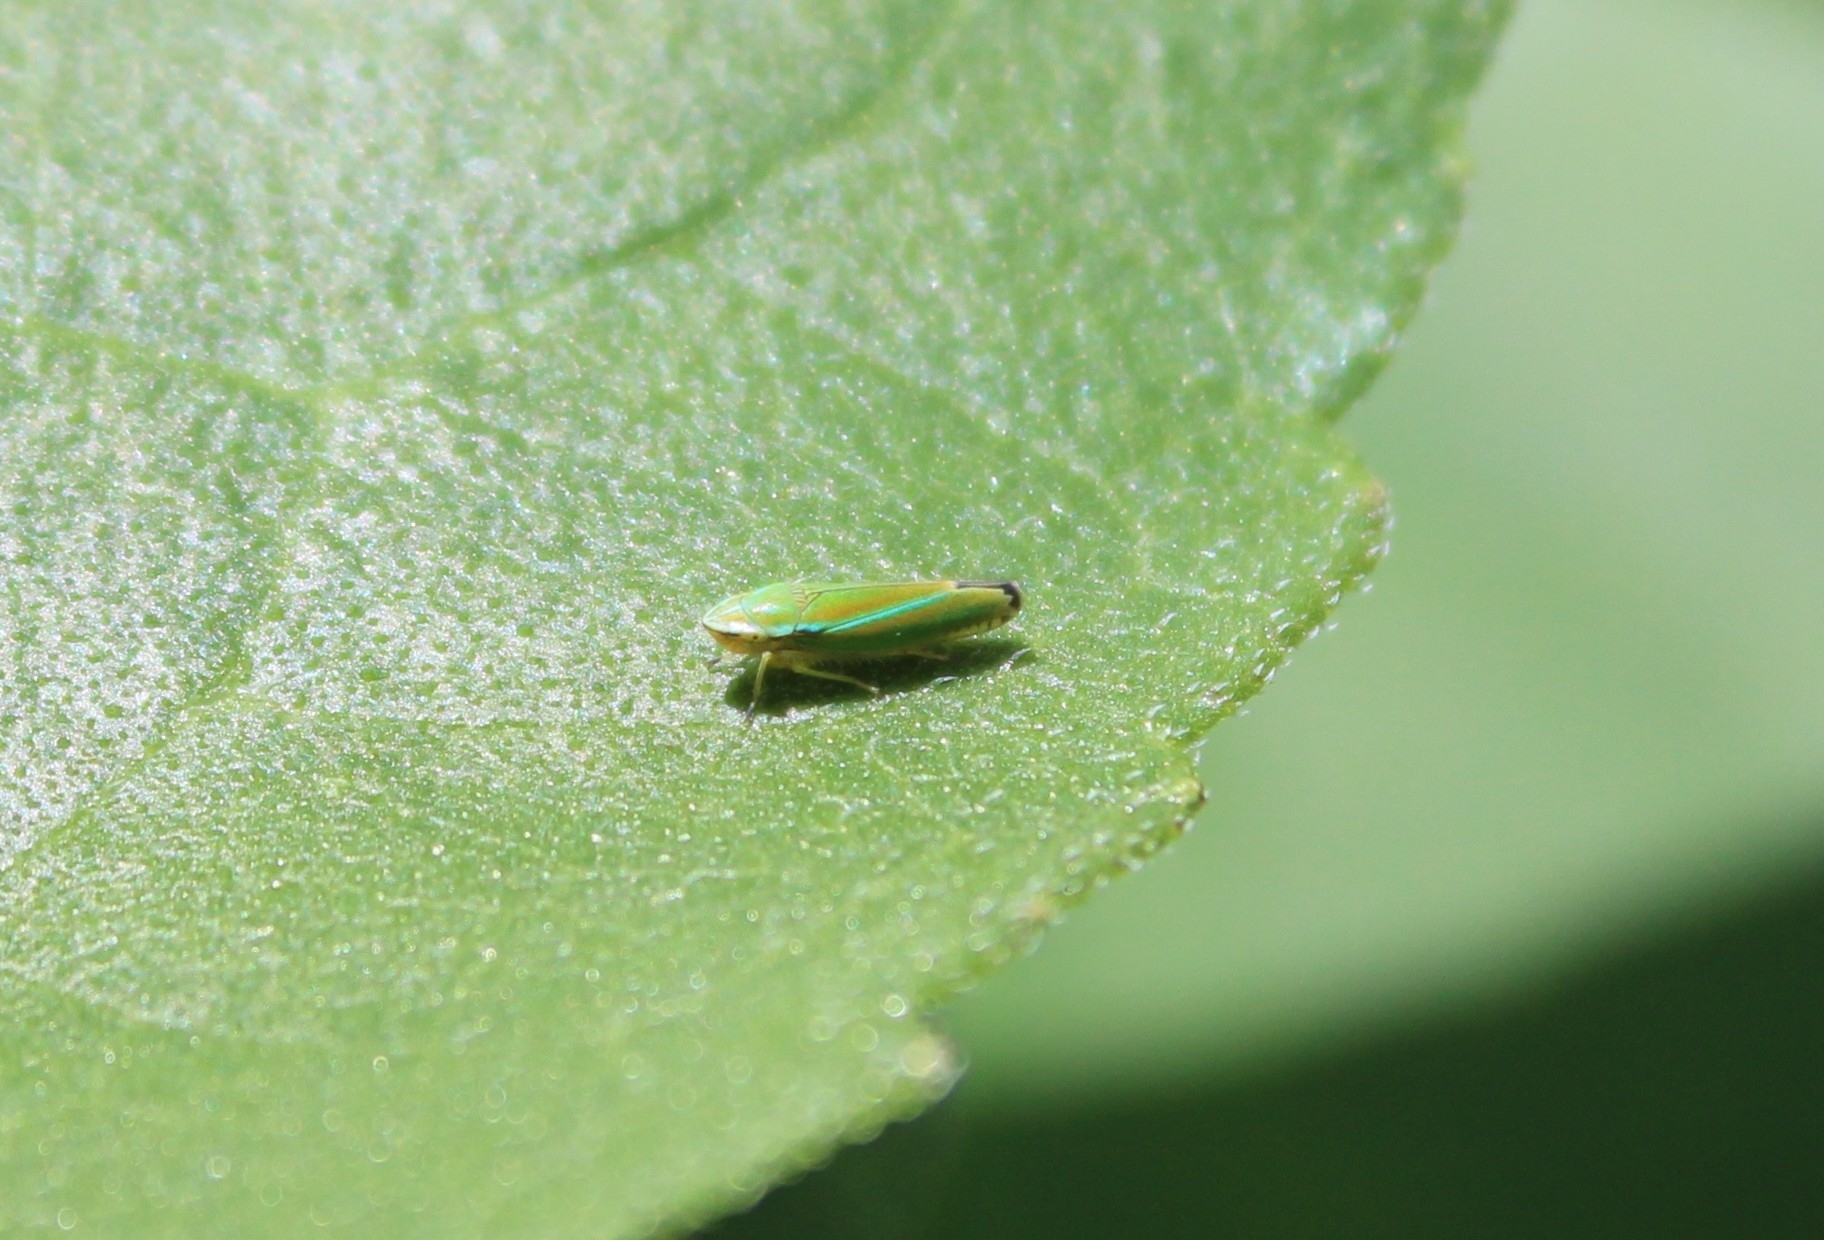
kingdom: Animalia
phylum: Arthropoda
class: Insecta
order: Hemiptera
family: Cicadellidae
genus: Graphocephala
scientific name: Graphocephala versuta
